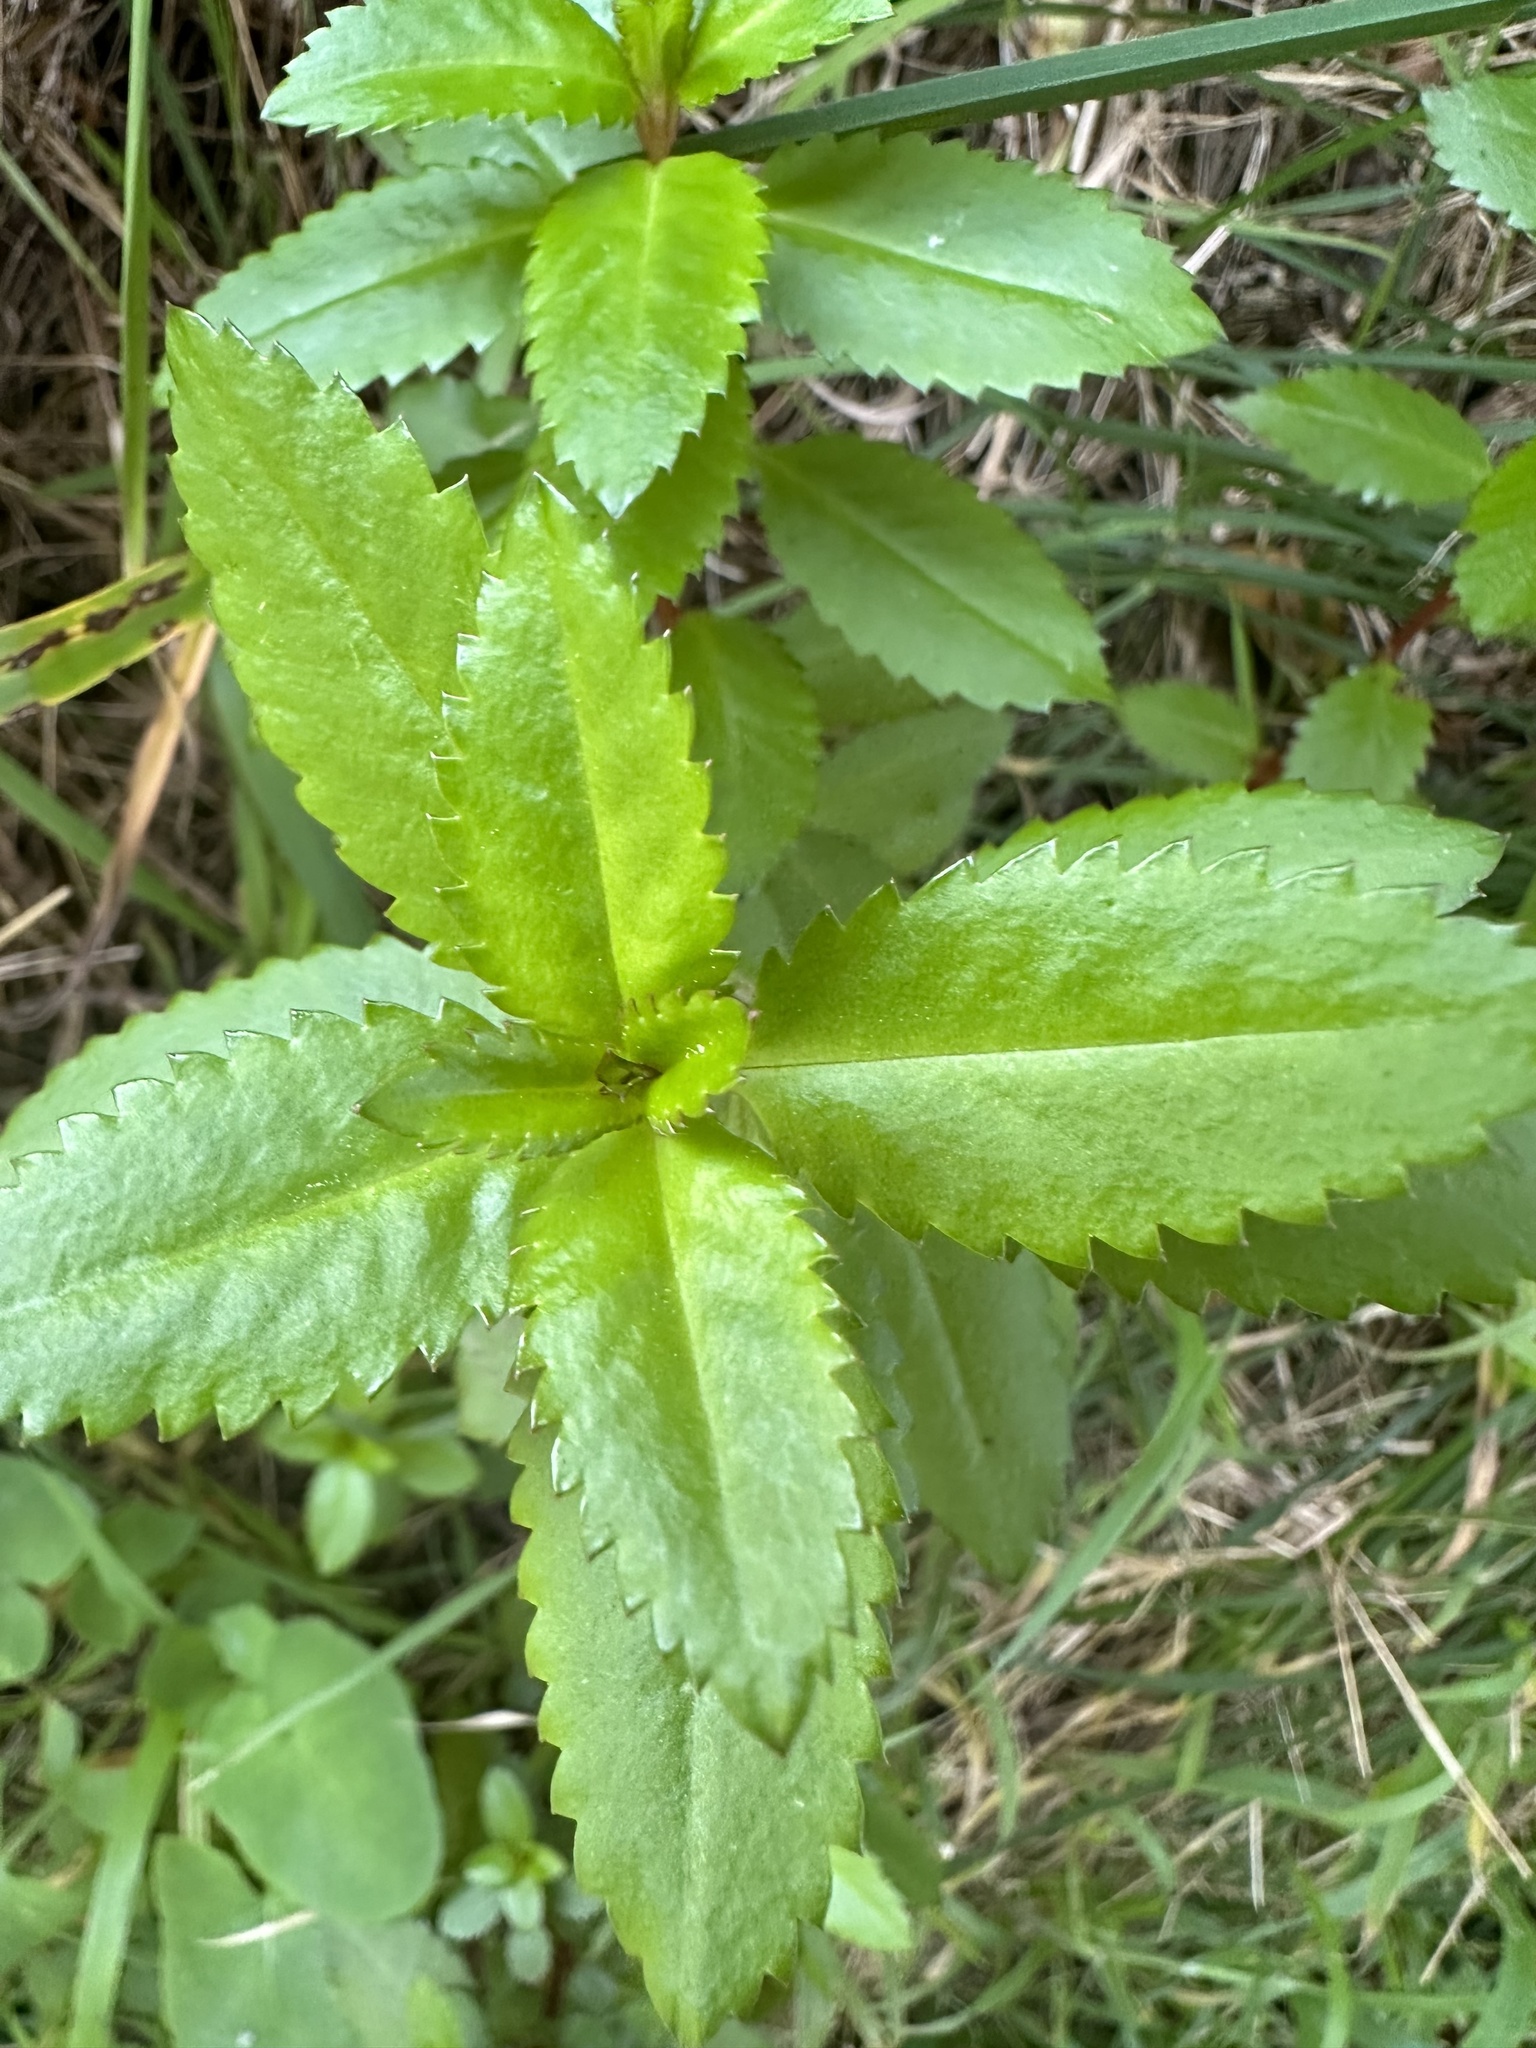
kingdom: Plantae
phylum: Tracheophyta
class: Magnoliopsida
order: Saxifragales
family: Haloragaceae
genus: Haloragis
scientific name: Haloragis erecta
